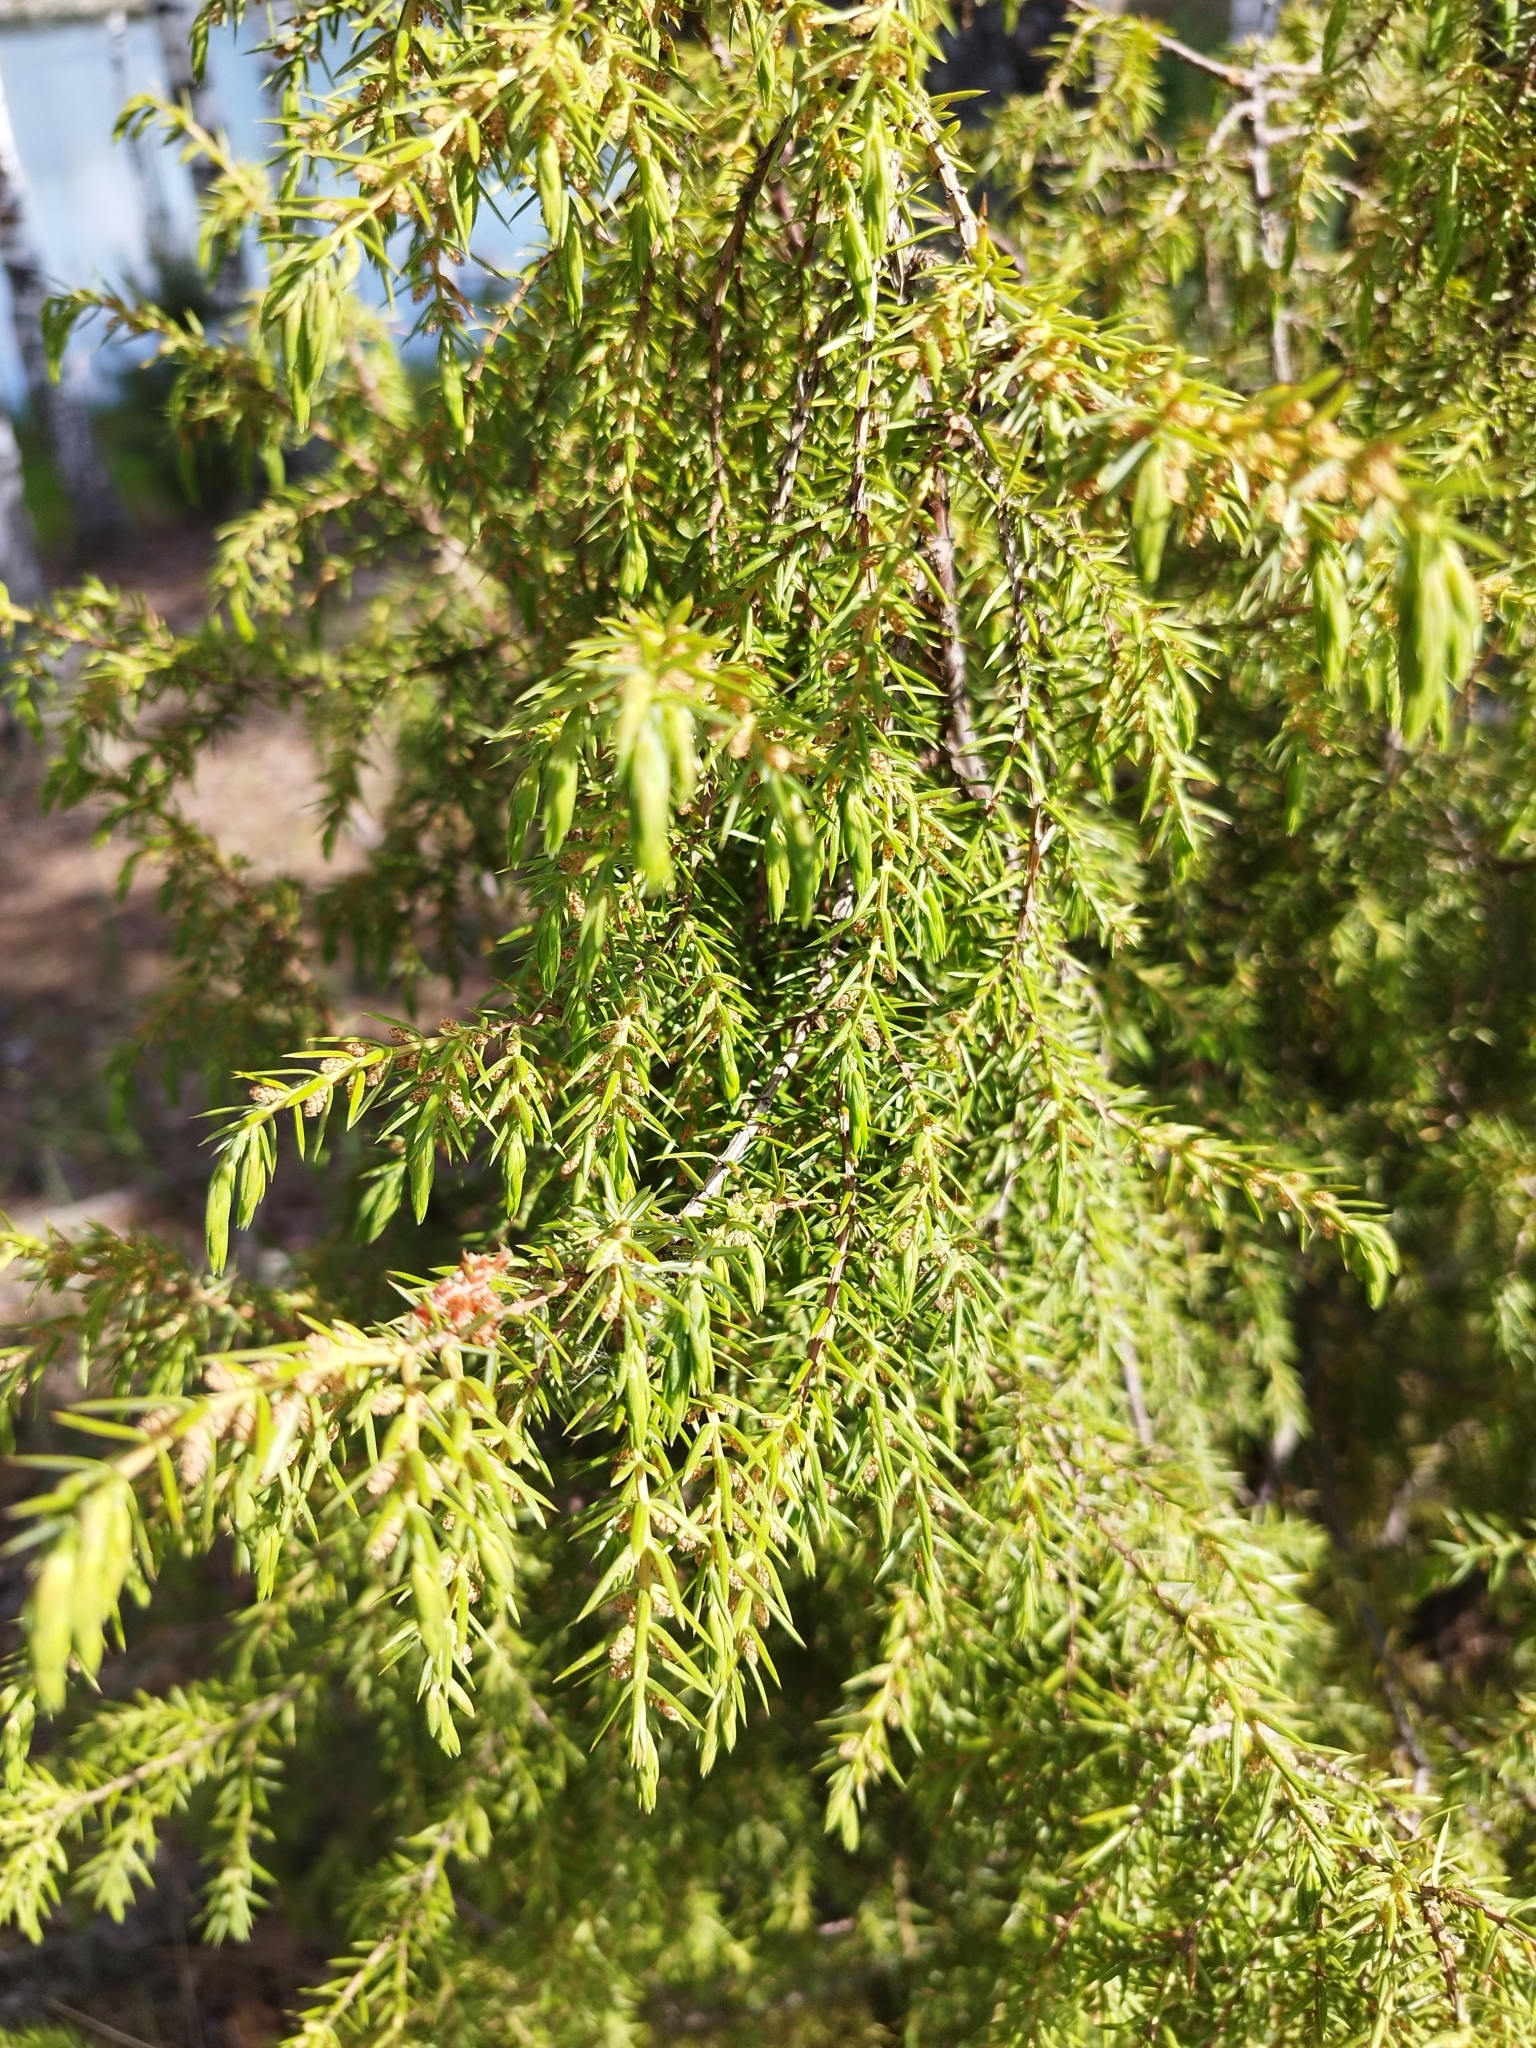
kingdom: Plantae
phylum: Tracheophyta
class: Pinopsida
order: Pinales
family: Cupressaceae
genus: Juniperus
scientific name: Juniperus communis
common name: Common juniper
